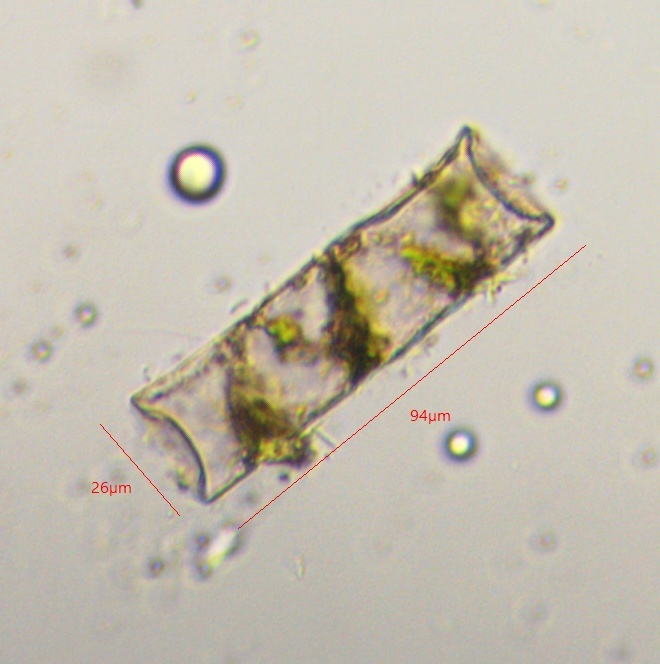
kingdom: Plantae
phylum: Charophyta
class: Zygnematophyceae
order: Zygnematales
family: Zygnemataceae
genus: Spirogyra
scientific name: Spirogyra
